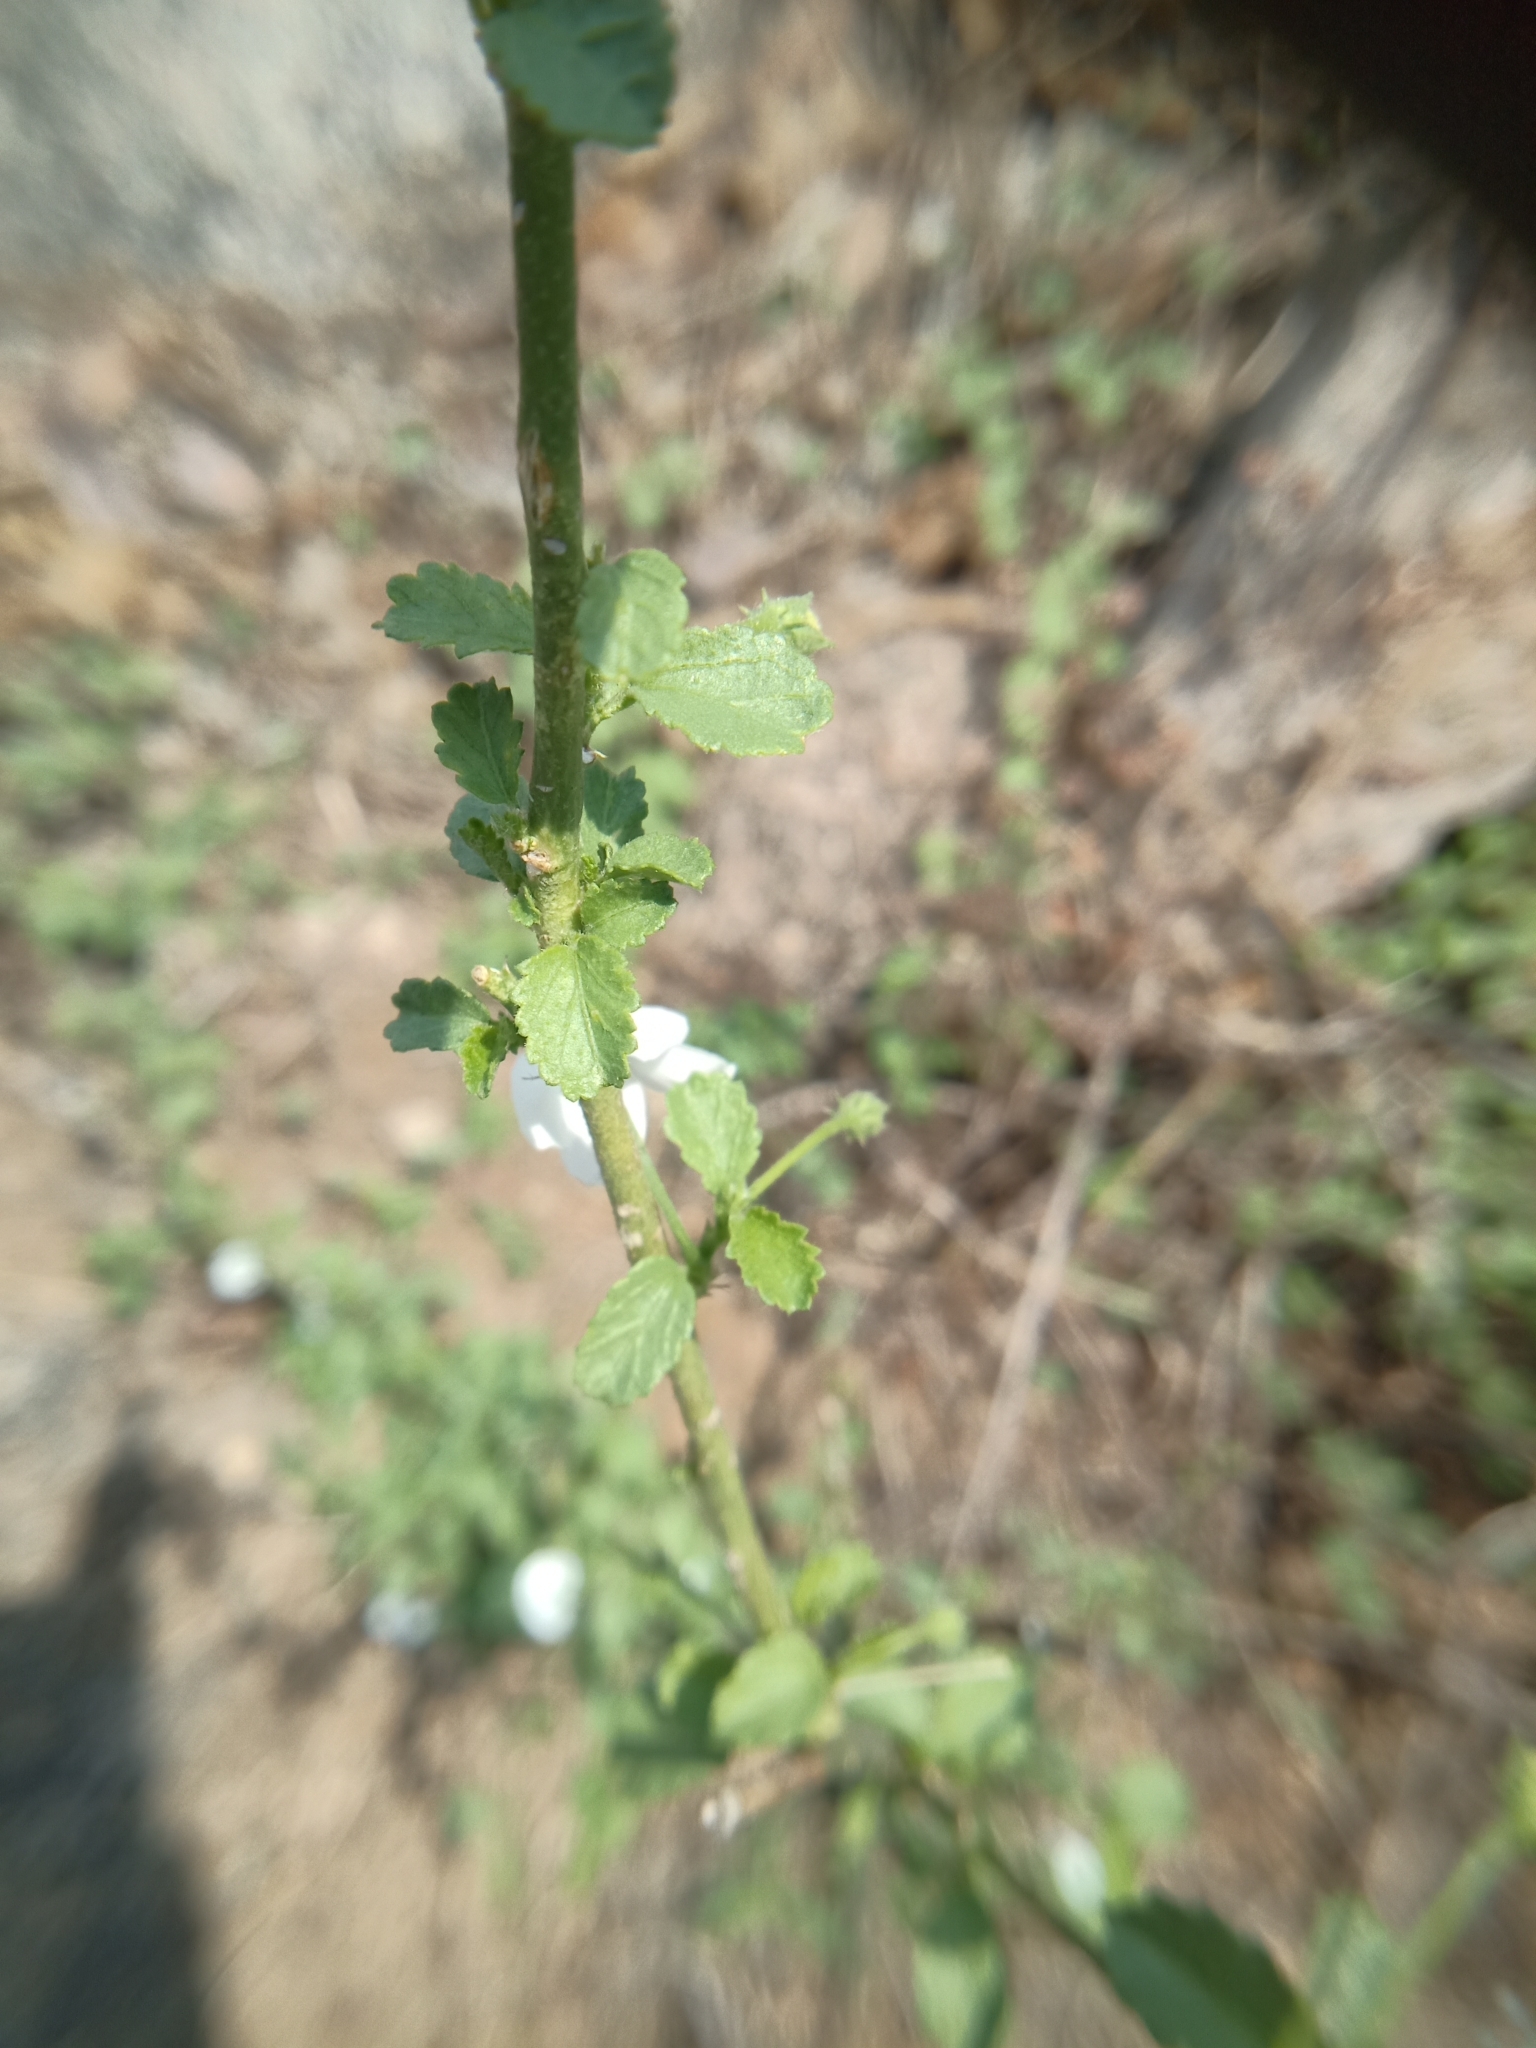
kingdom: Plantae
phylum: Tracheophyta
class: Magnoliopsida
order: Malvales
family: Malvaceae
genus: Hibiscus
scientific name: Hibiscus micranthus
